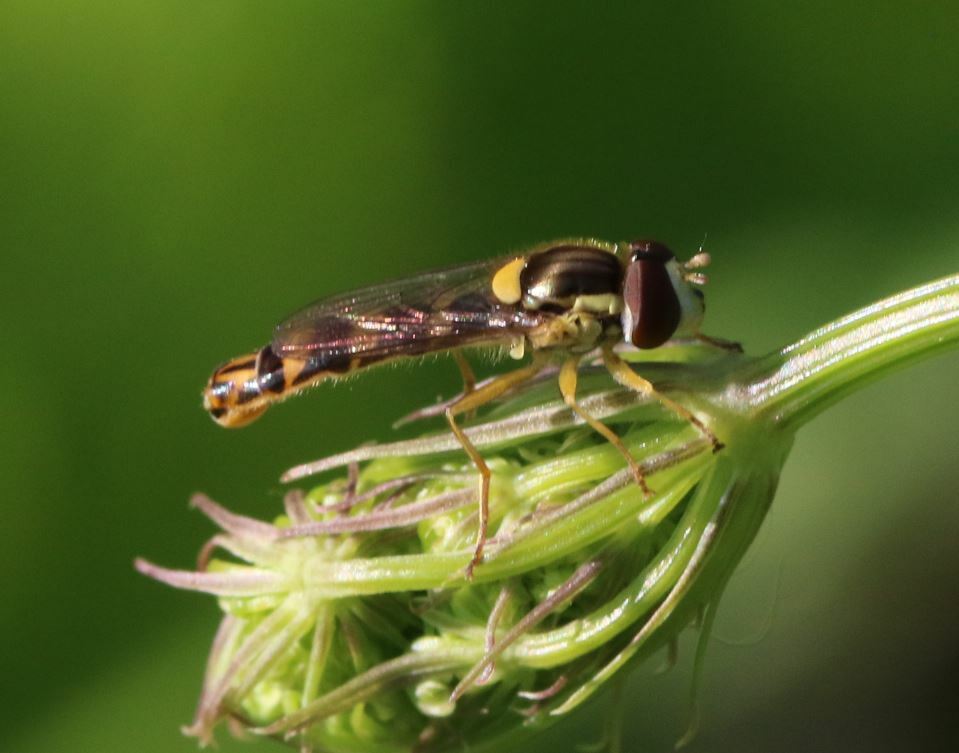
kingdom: Animalia
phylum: Arthropoda
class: Insecta
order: Diptera
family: Syrphidae
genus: Sphaerophoria
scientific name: Sphaerophoria scripta
